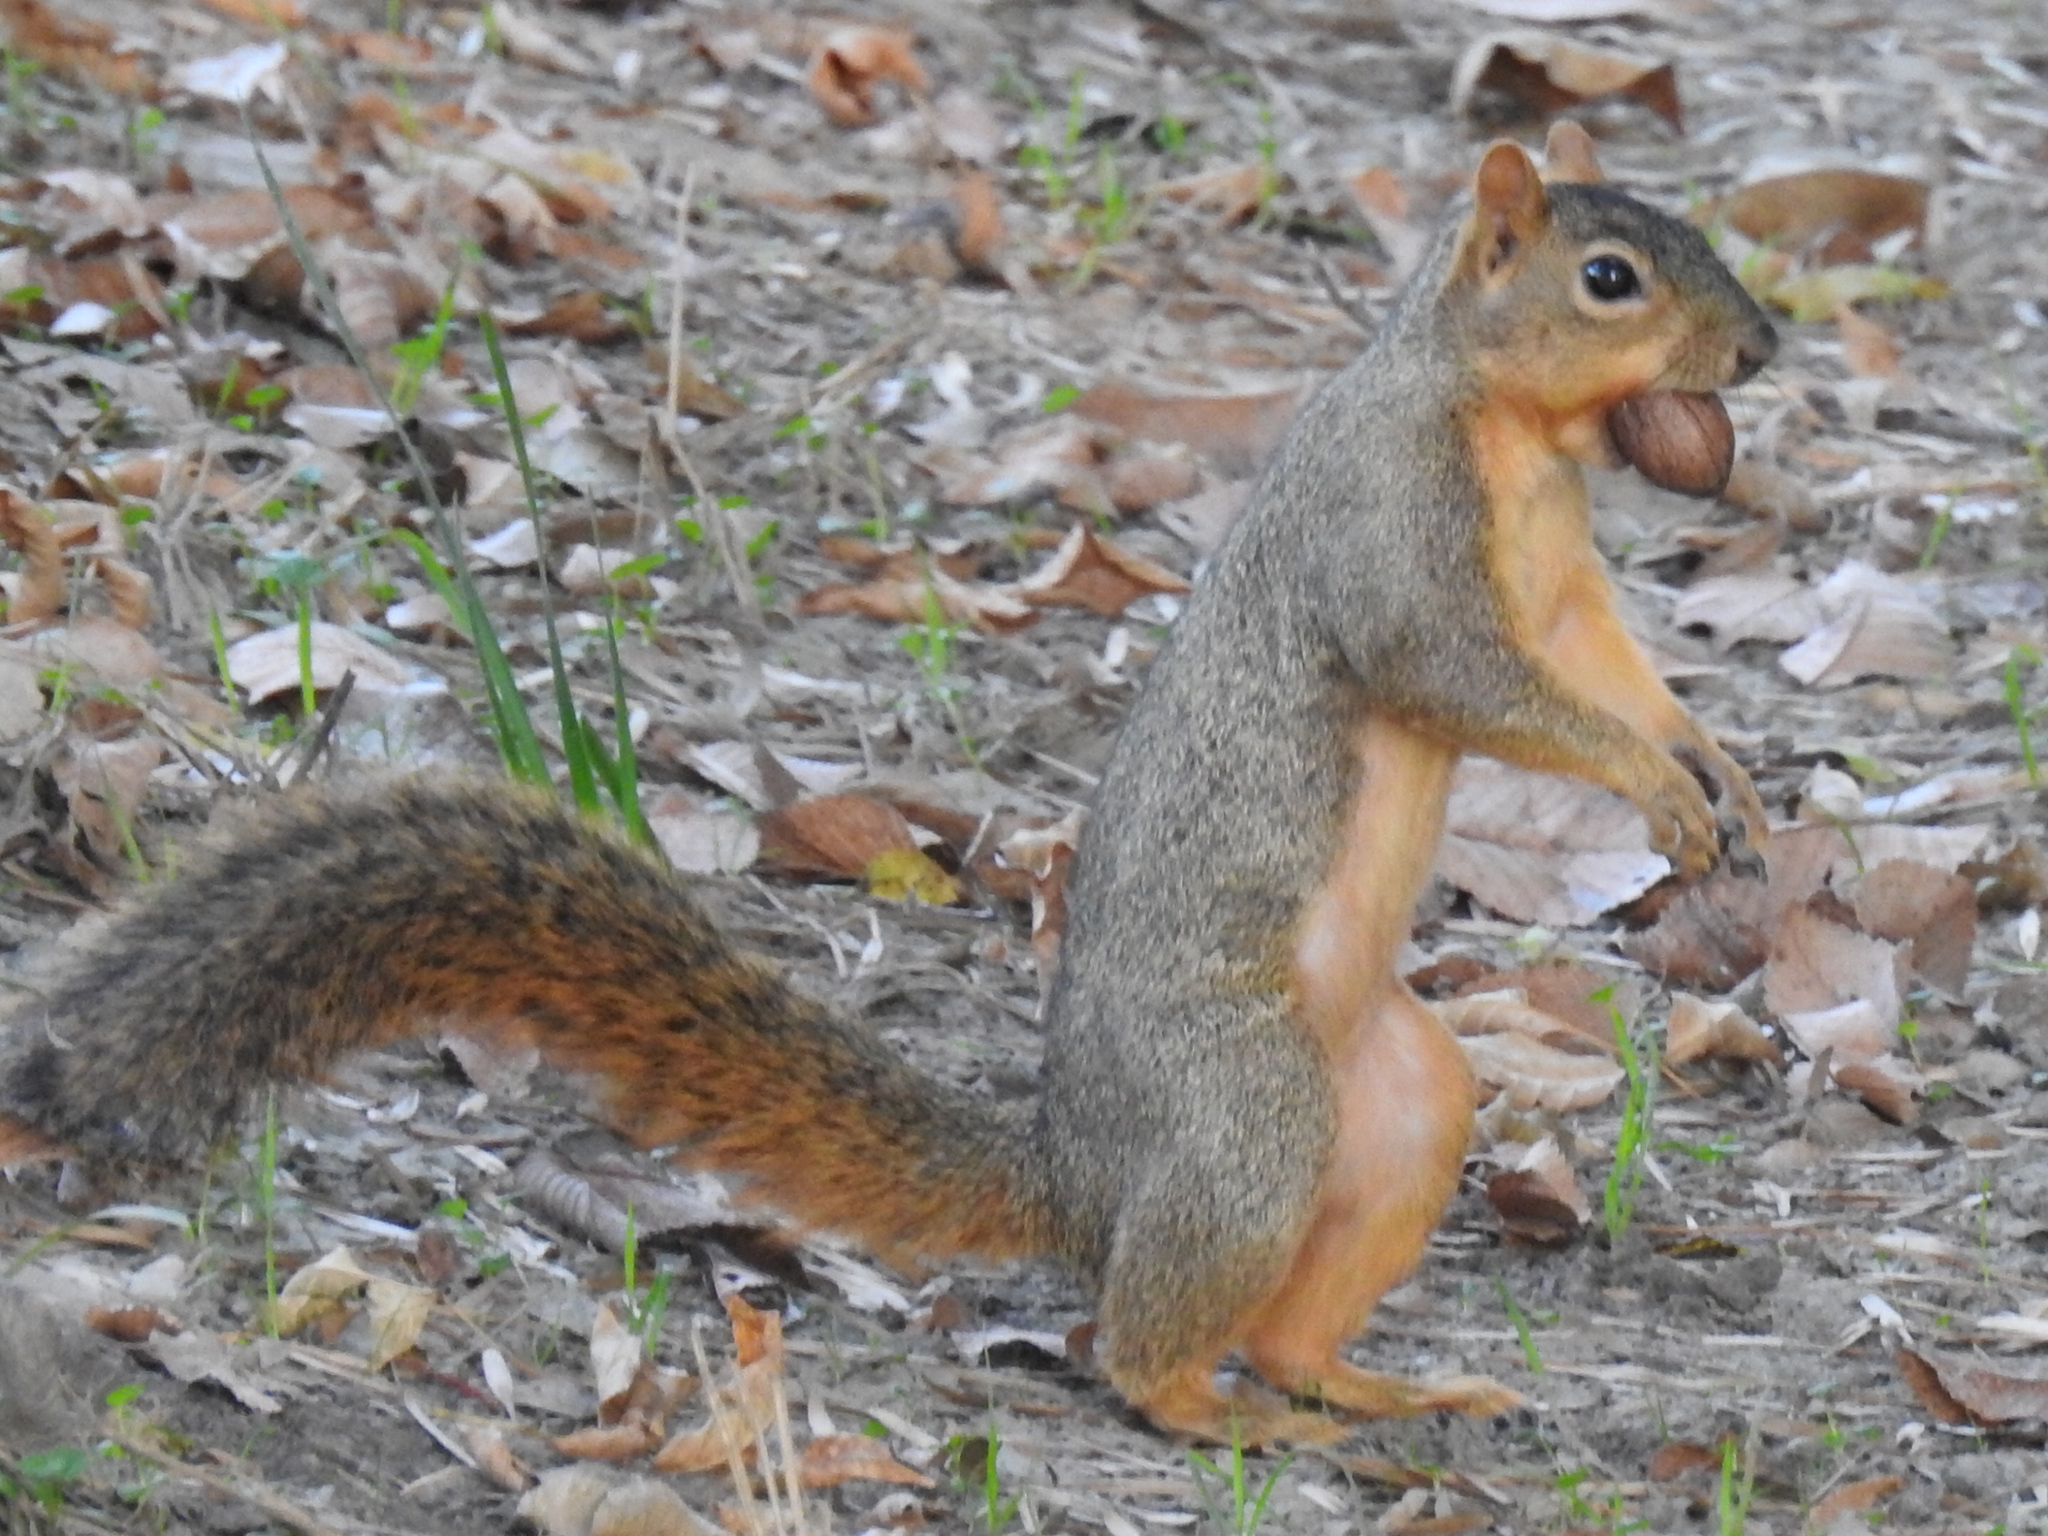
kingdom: Animalia
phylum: Chordata
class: Mammalia
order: Rodentia
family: Sciuridae
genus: Sciurus
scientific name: Sciurus niger
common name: Fox squirrel
